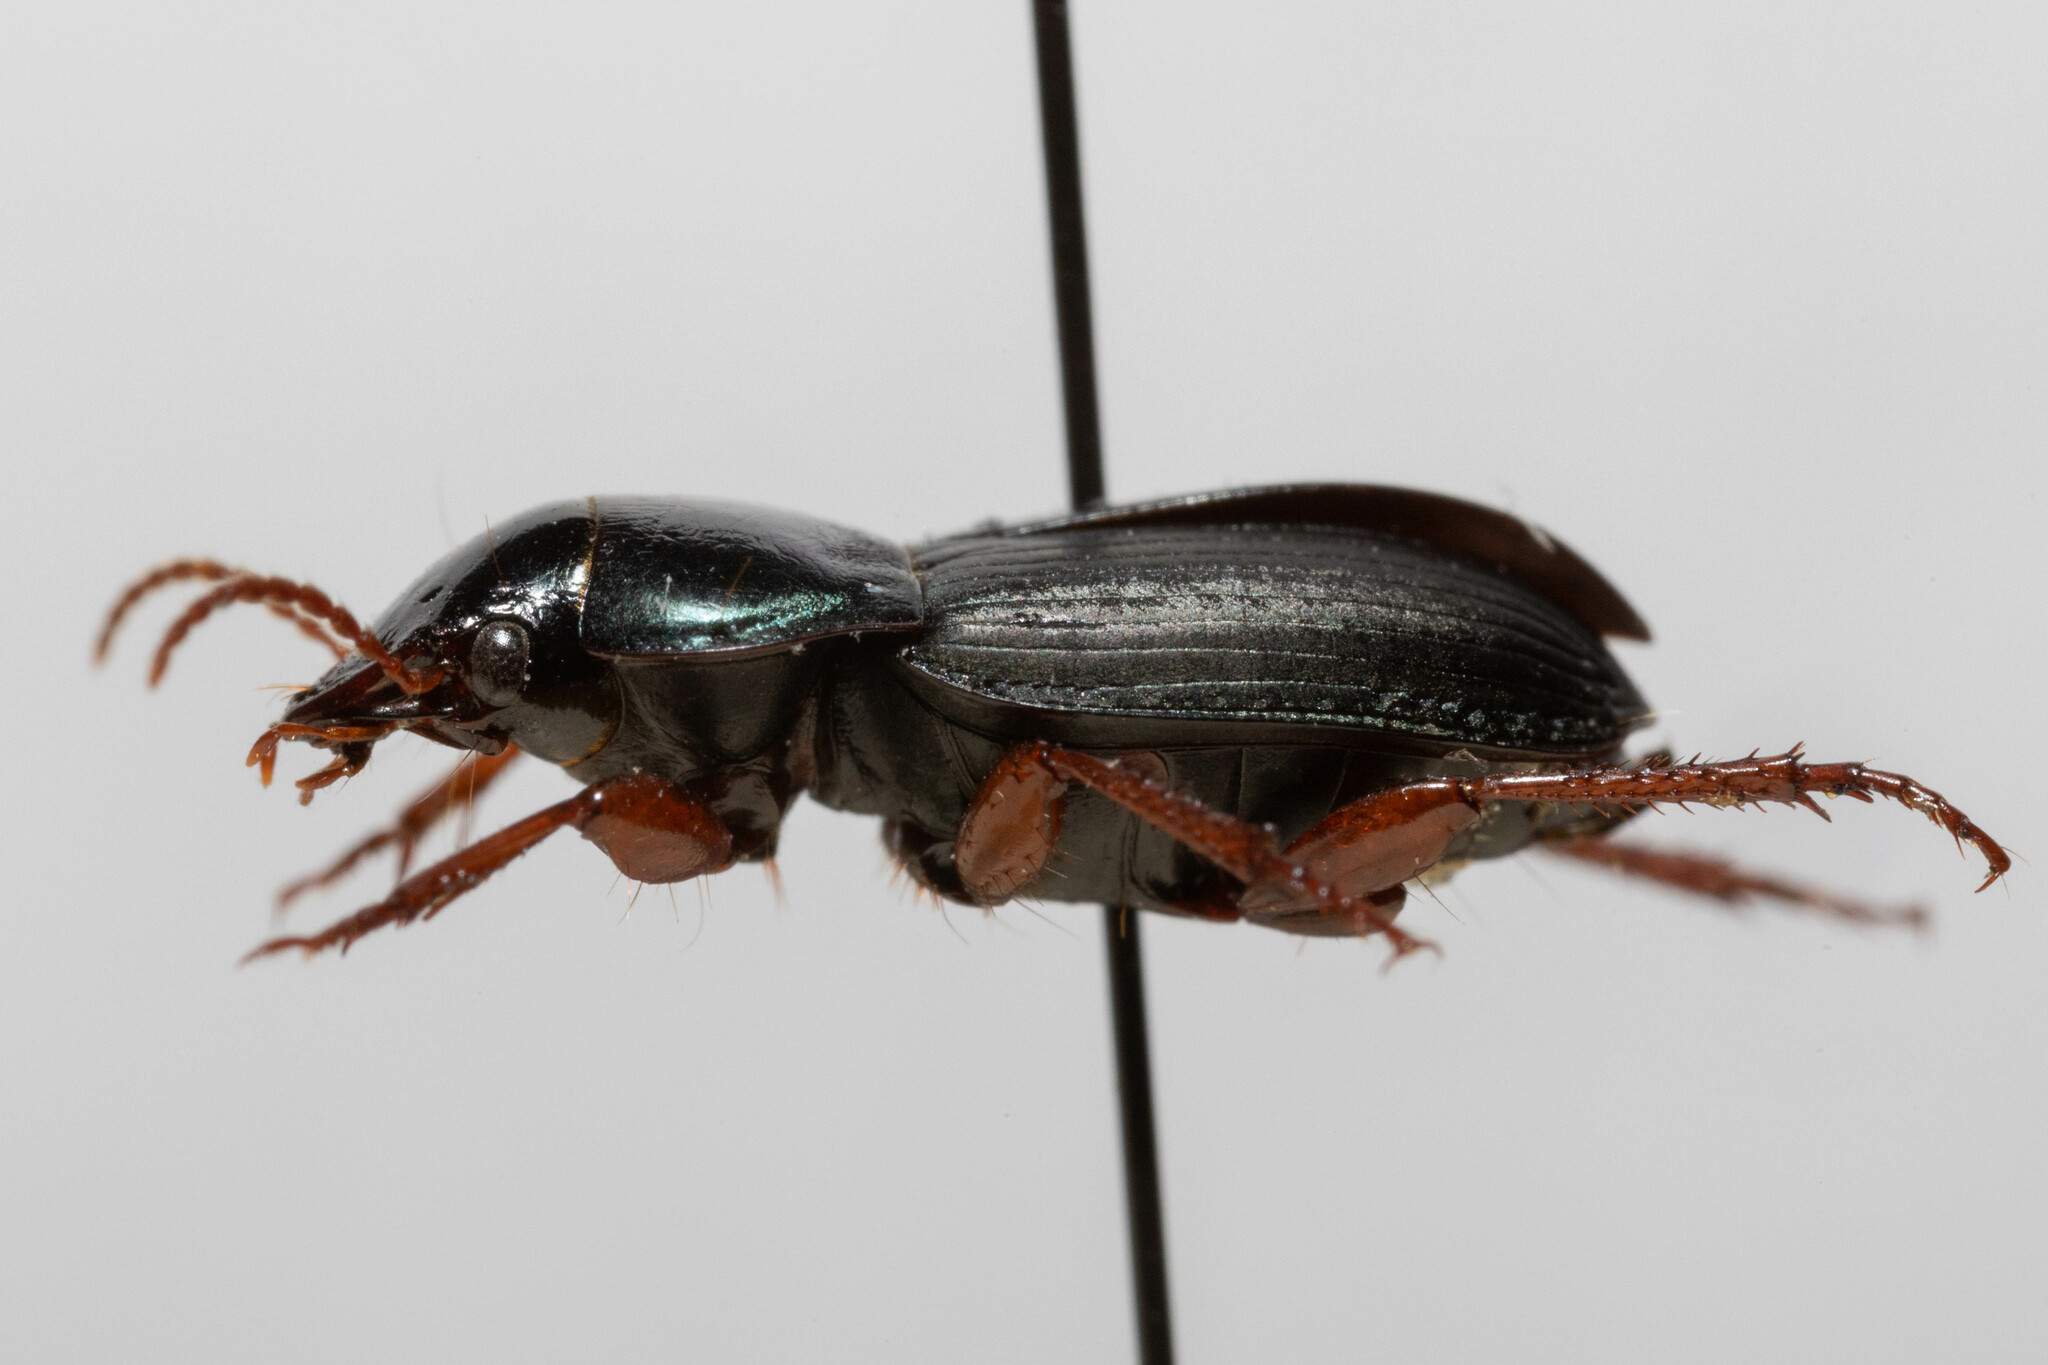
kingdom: Animalia
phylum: Arthropoda
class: Insecta
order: Coleoptera
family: Carabidae
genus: Harpalus
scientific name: Harpalus rubripes
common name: Red-legged harp ground beetle
